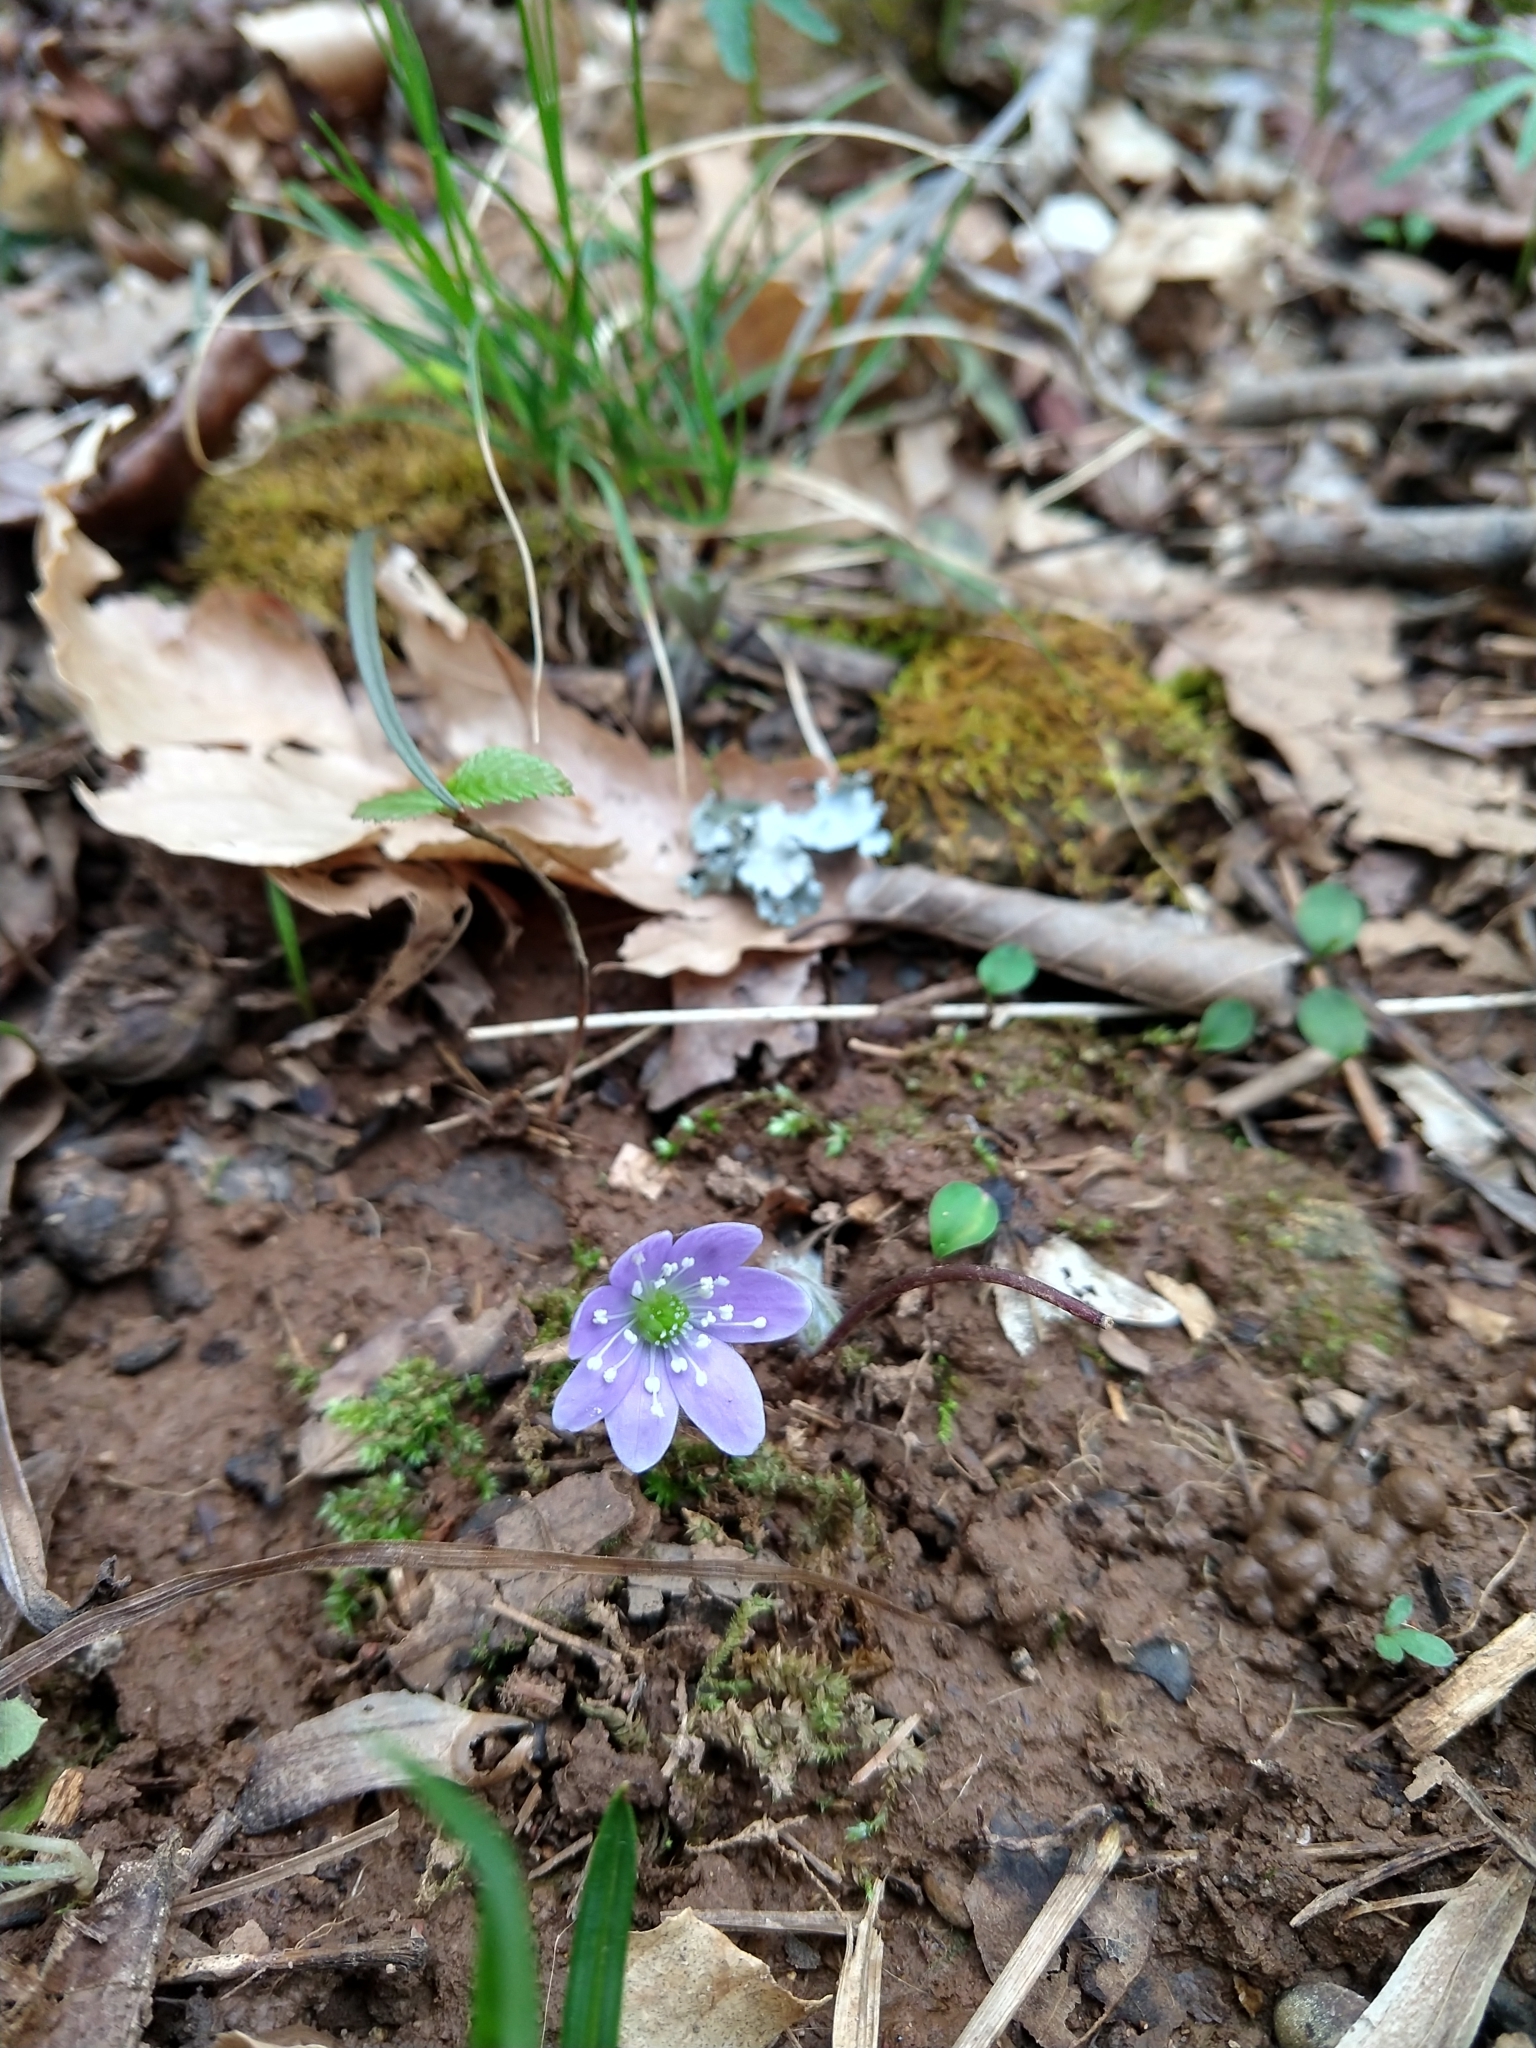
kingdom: Plantae
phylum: Tracheophyta
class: Magnoliopsida
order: Ranunculales
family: Ranunculaceae
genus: Hepatica
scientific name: Hepatica americana
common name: American hepatica
